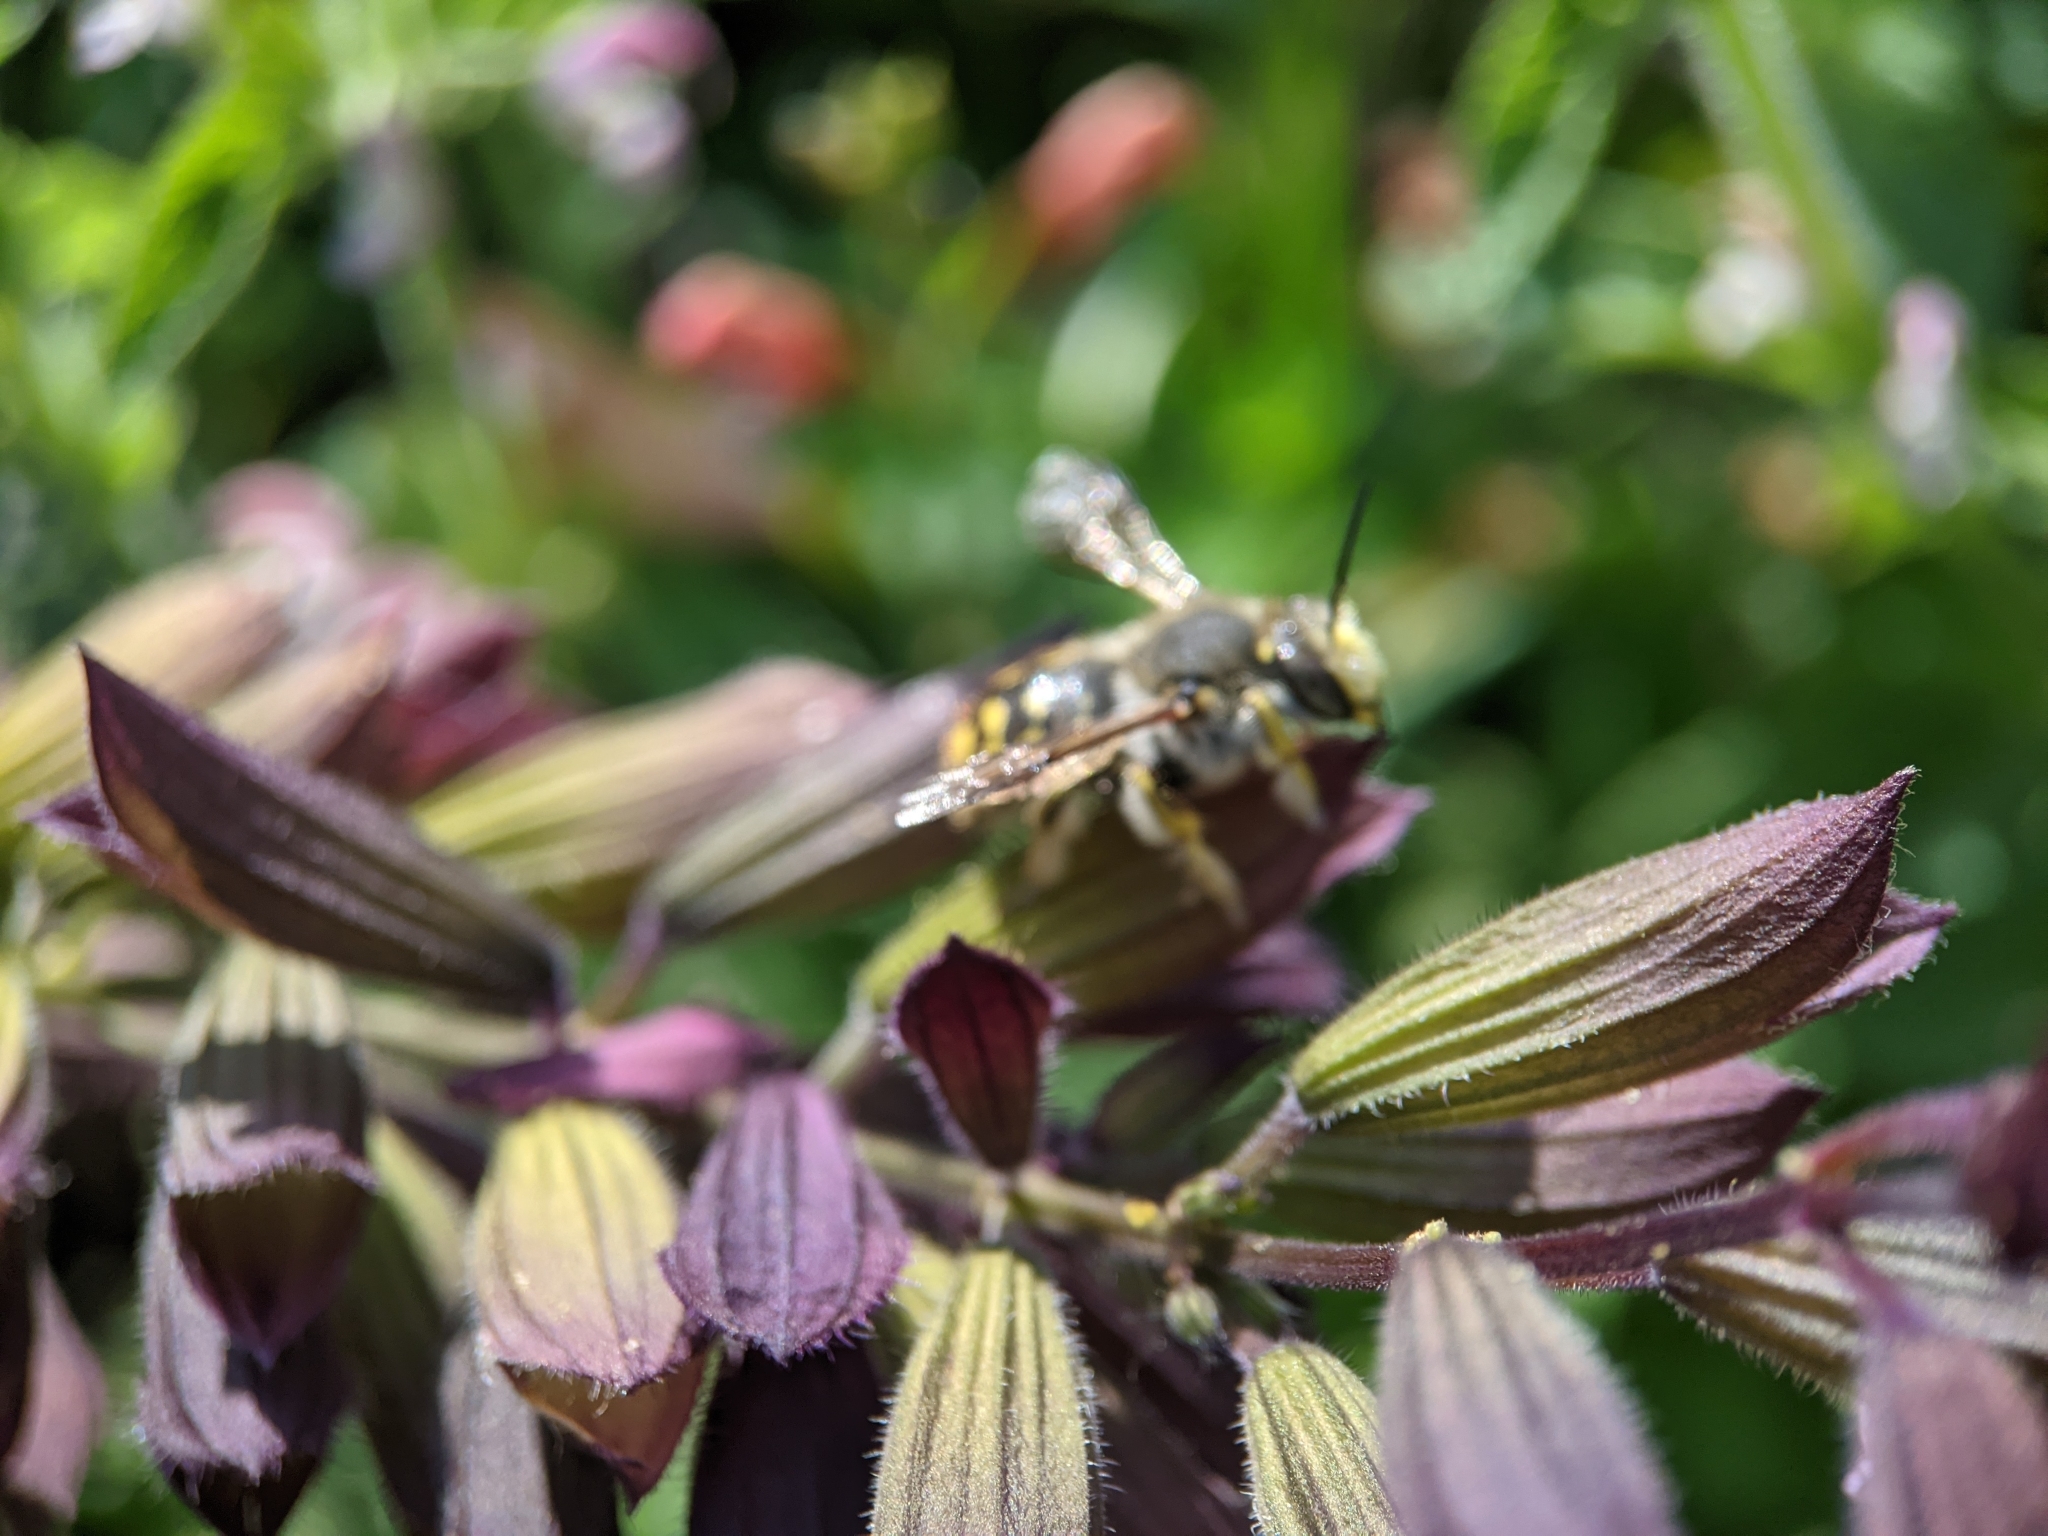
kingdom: Animalia
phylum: Arthropoda
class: Insecta
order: Hymenoptera
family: Megachilidae
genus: Anthidium
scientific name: Anthidium manicatum
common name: Wool carder bee
